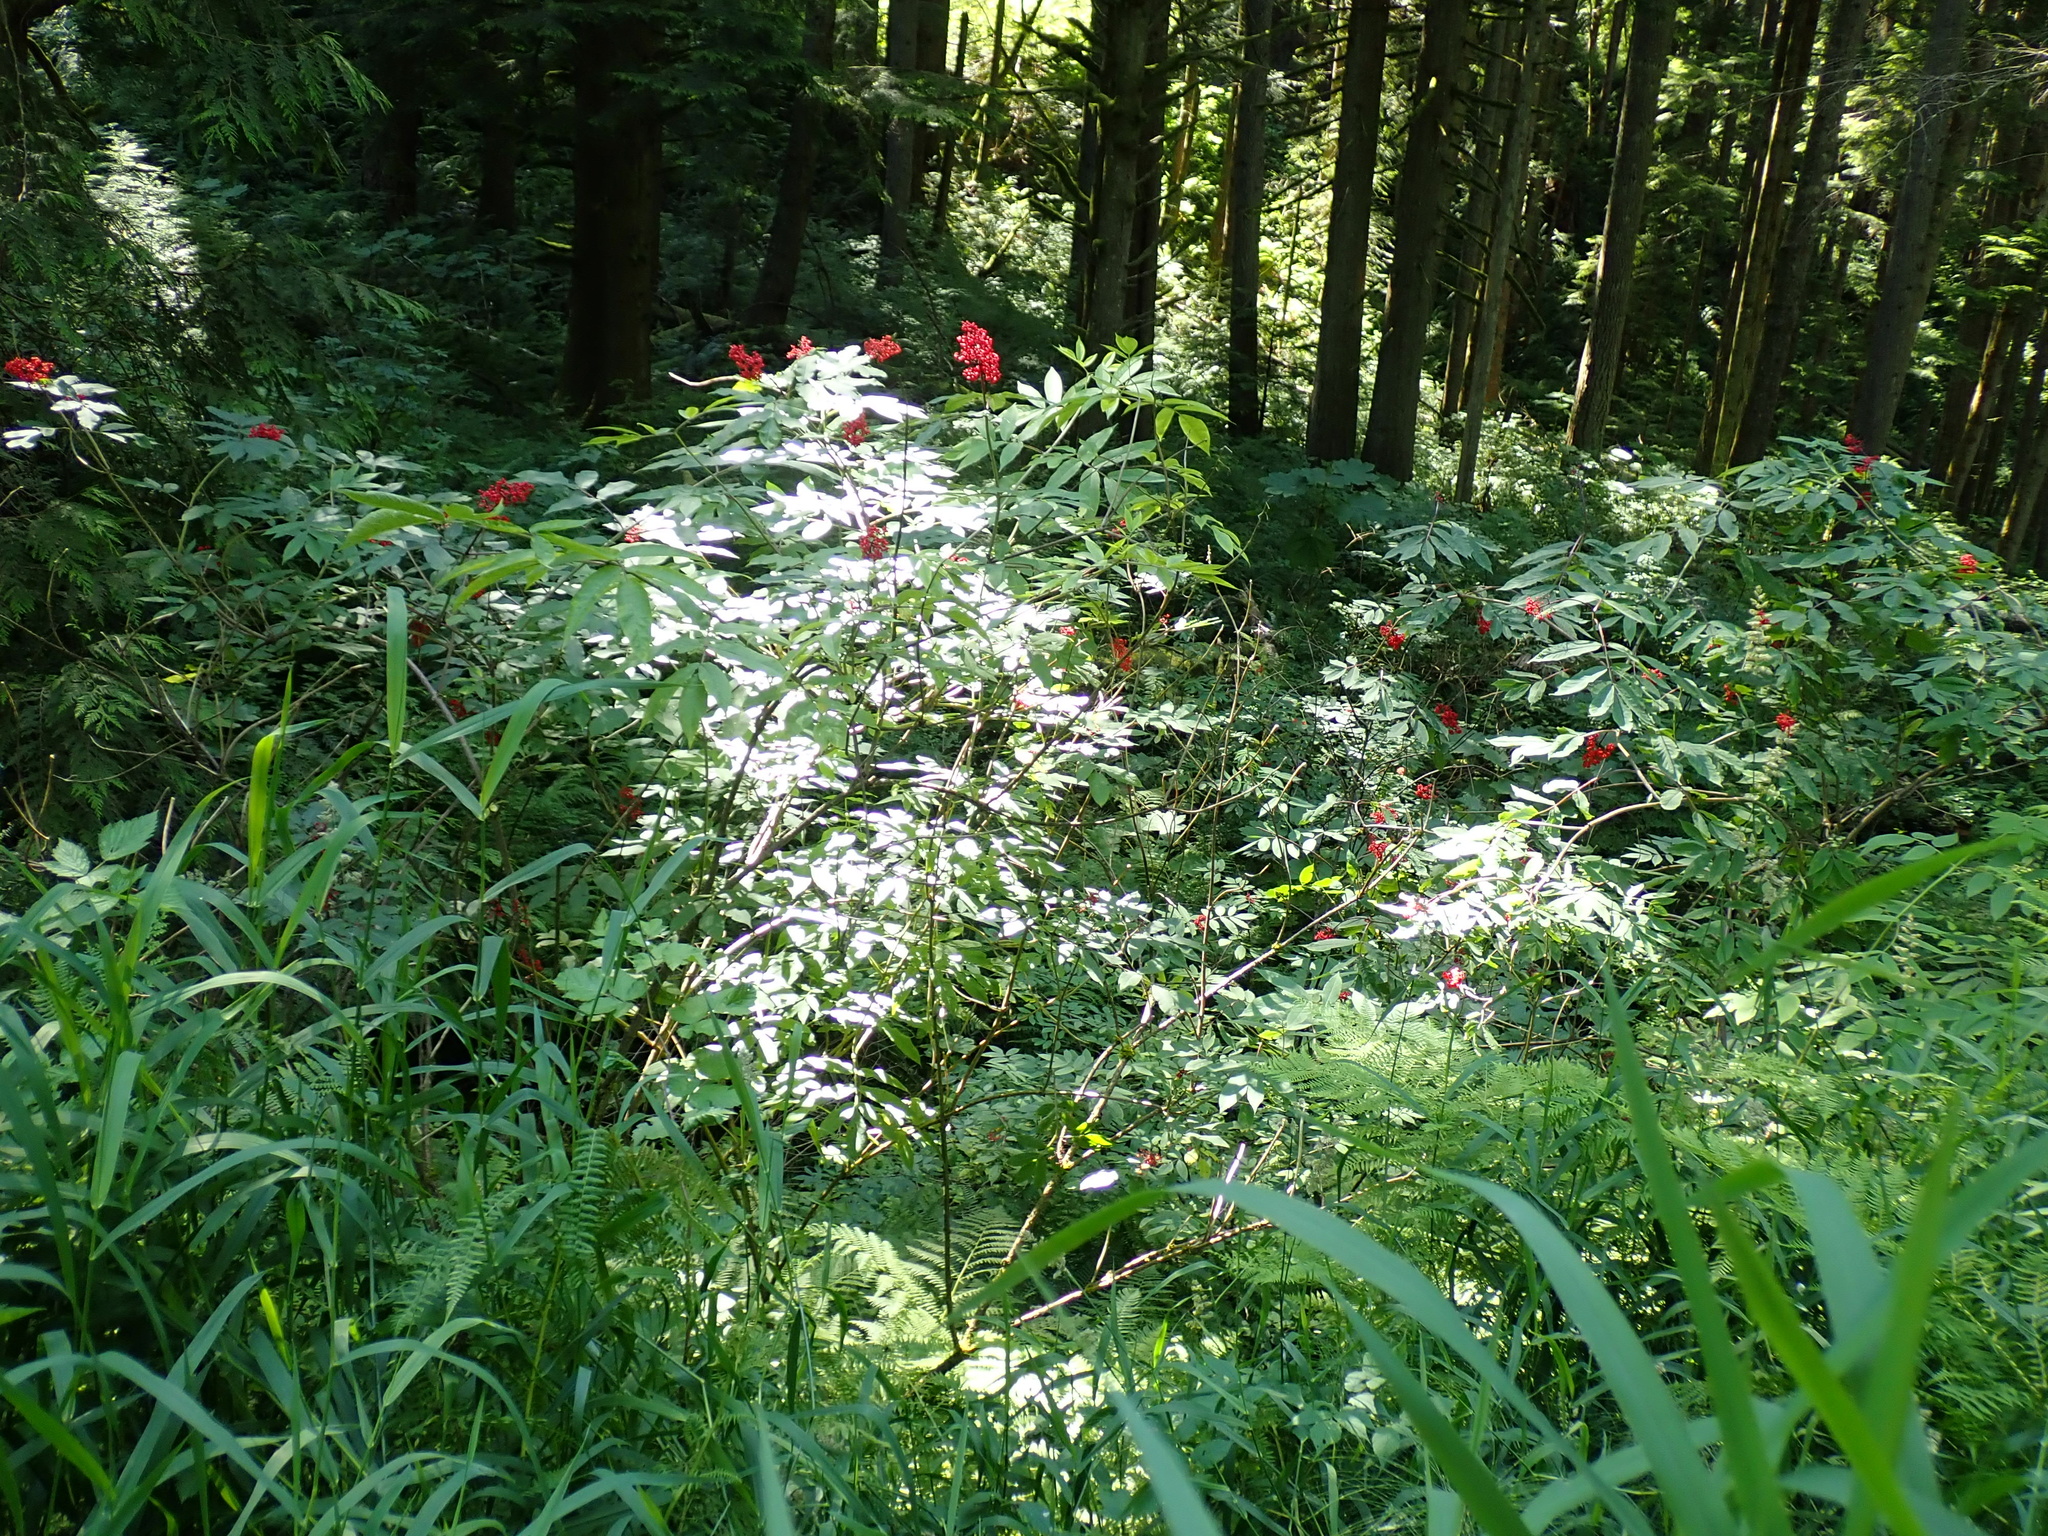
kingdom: Plantae
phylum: Tracheophyta
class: Magnoliopsida
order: Dipsacales
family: Viburnaceae
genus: Sambucus
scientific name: Sambucus racemosa
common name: Red-berried elder
